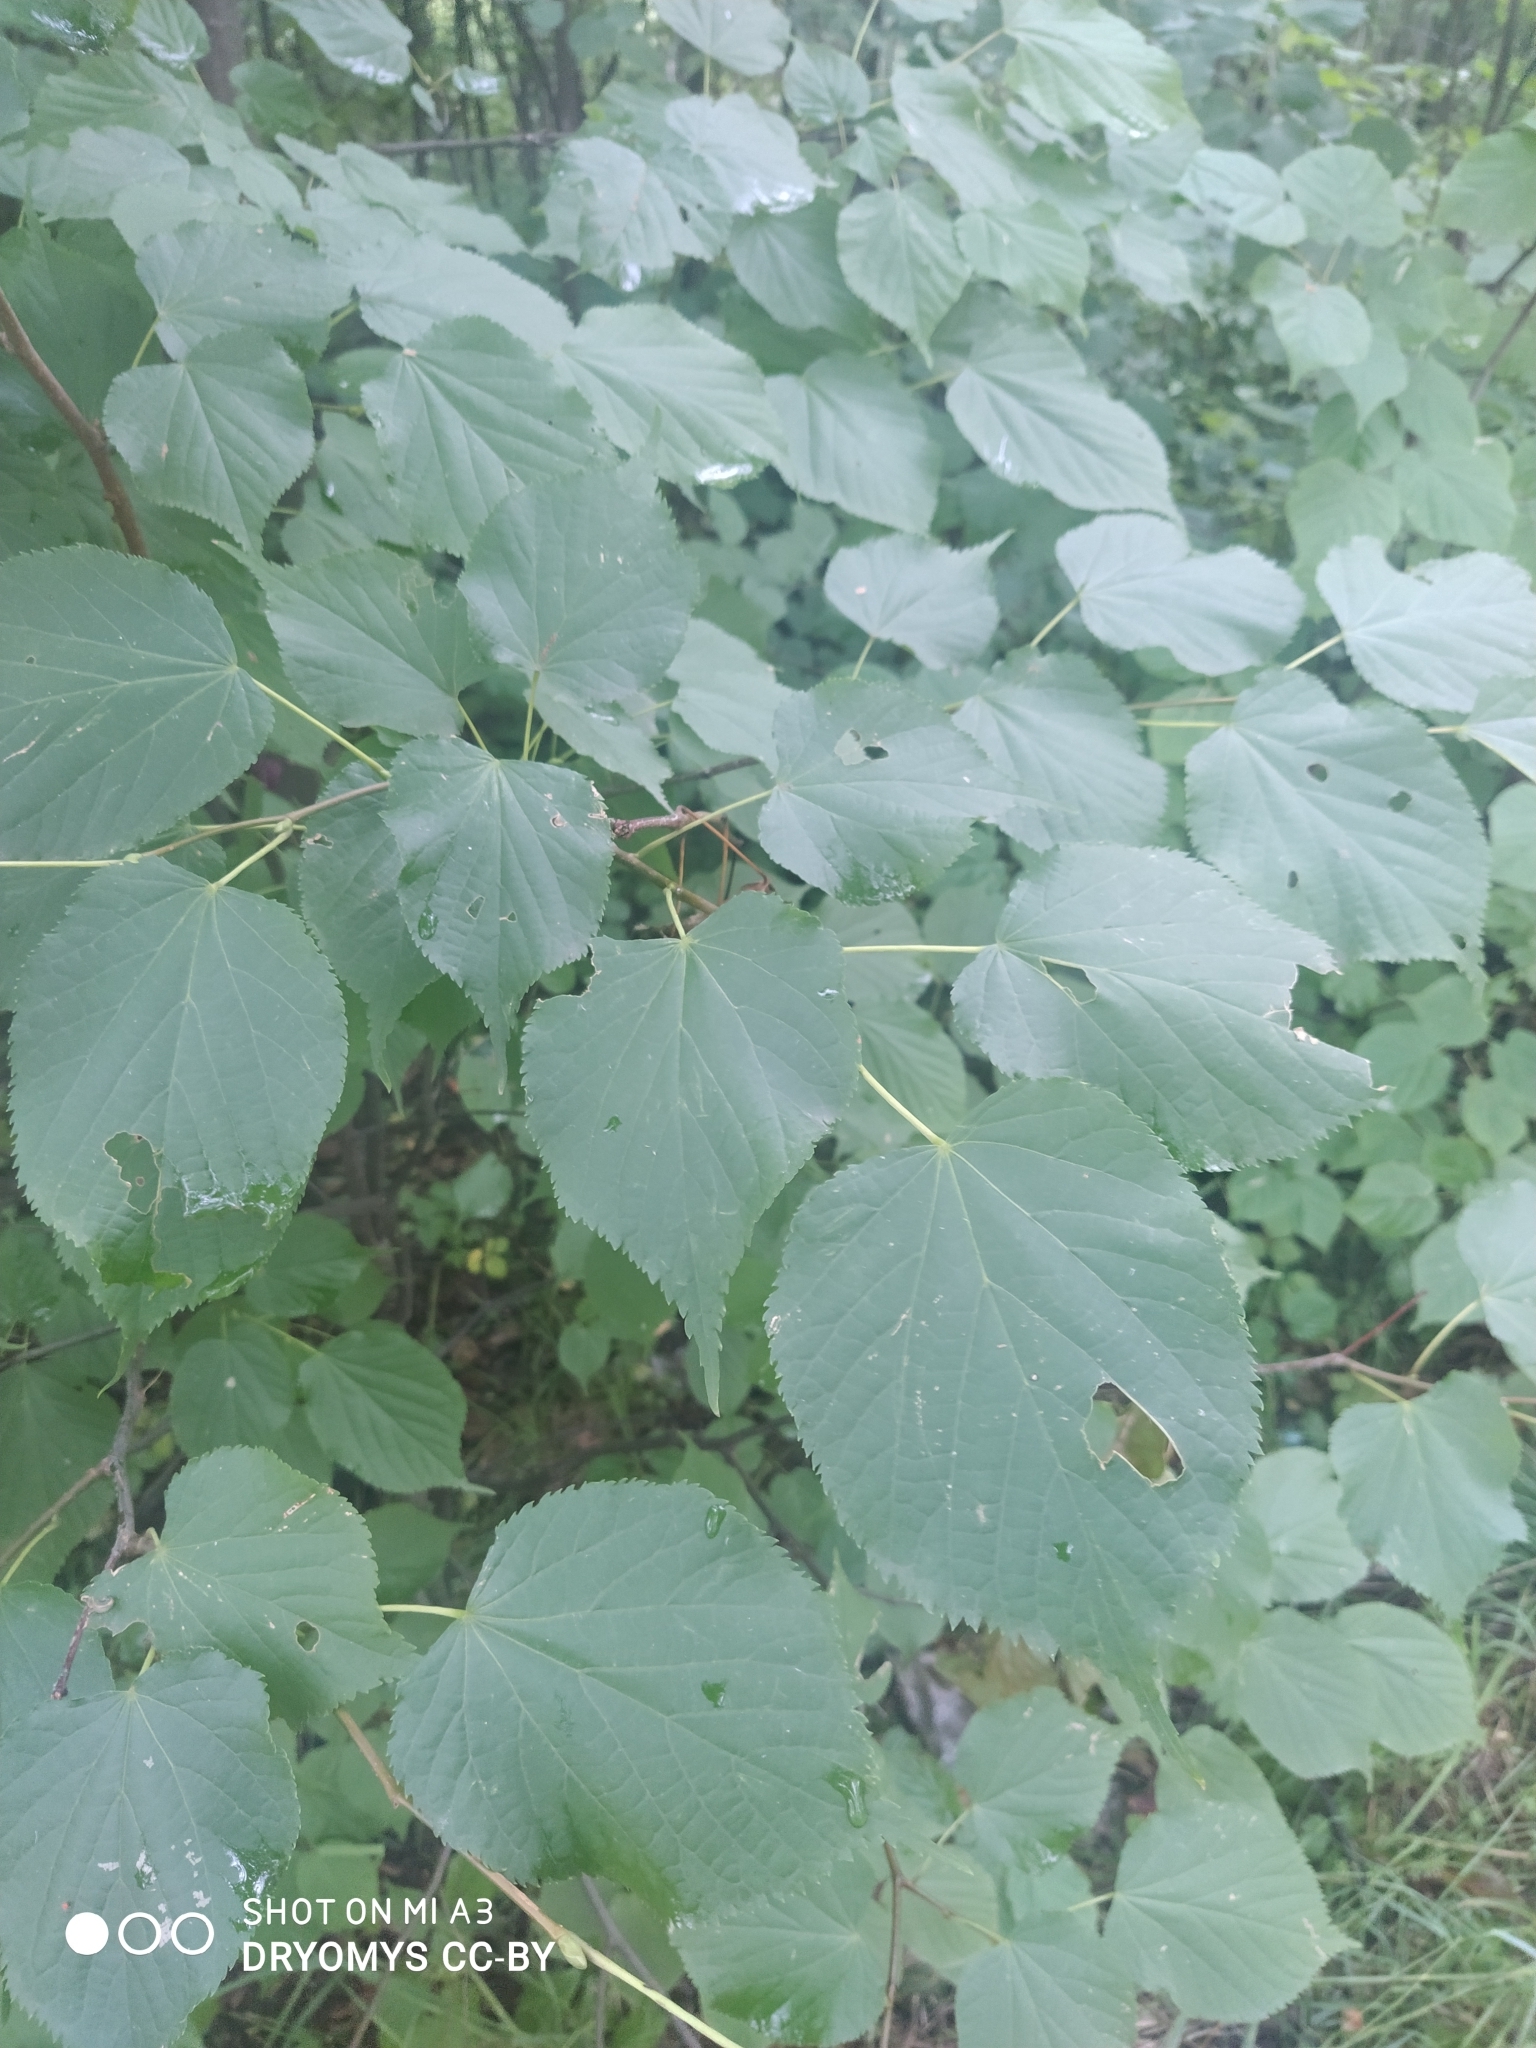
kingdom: Plantae
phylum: Tracheophyta
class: Magnoliopsida
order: Malvales
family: Malvaceae
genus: Tilia
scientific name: Tilia cordata
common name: Small-leaved lime
